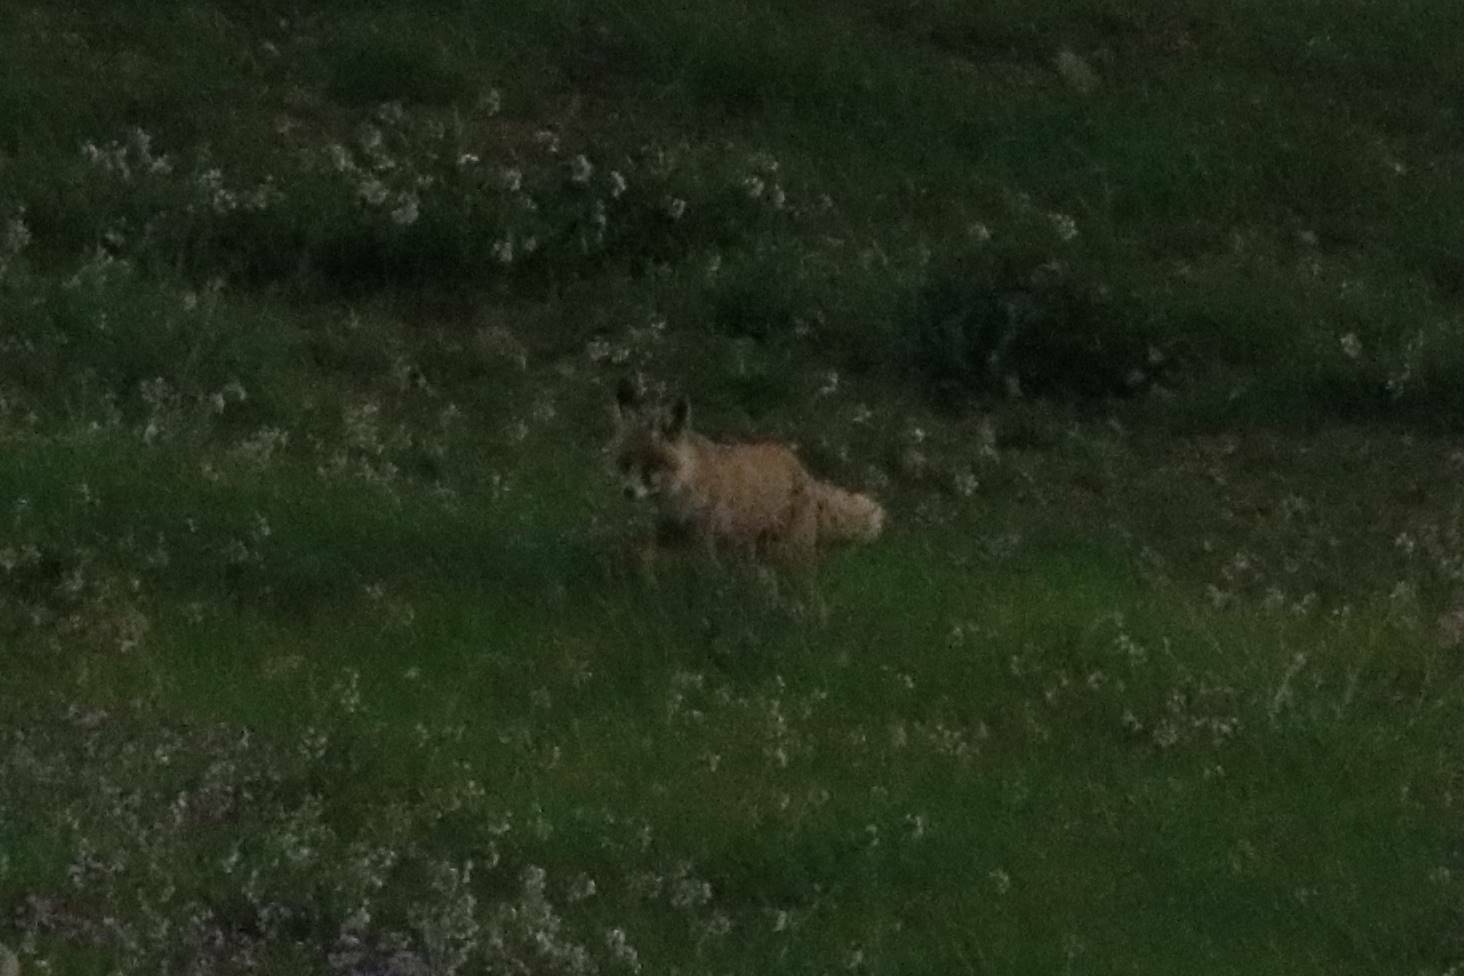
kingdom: Animalia
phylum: Chordata
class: Mammalia
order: Carnivora
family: Canidae
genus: Vulpes
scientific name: Vulpes vulpes
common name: Red fox
